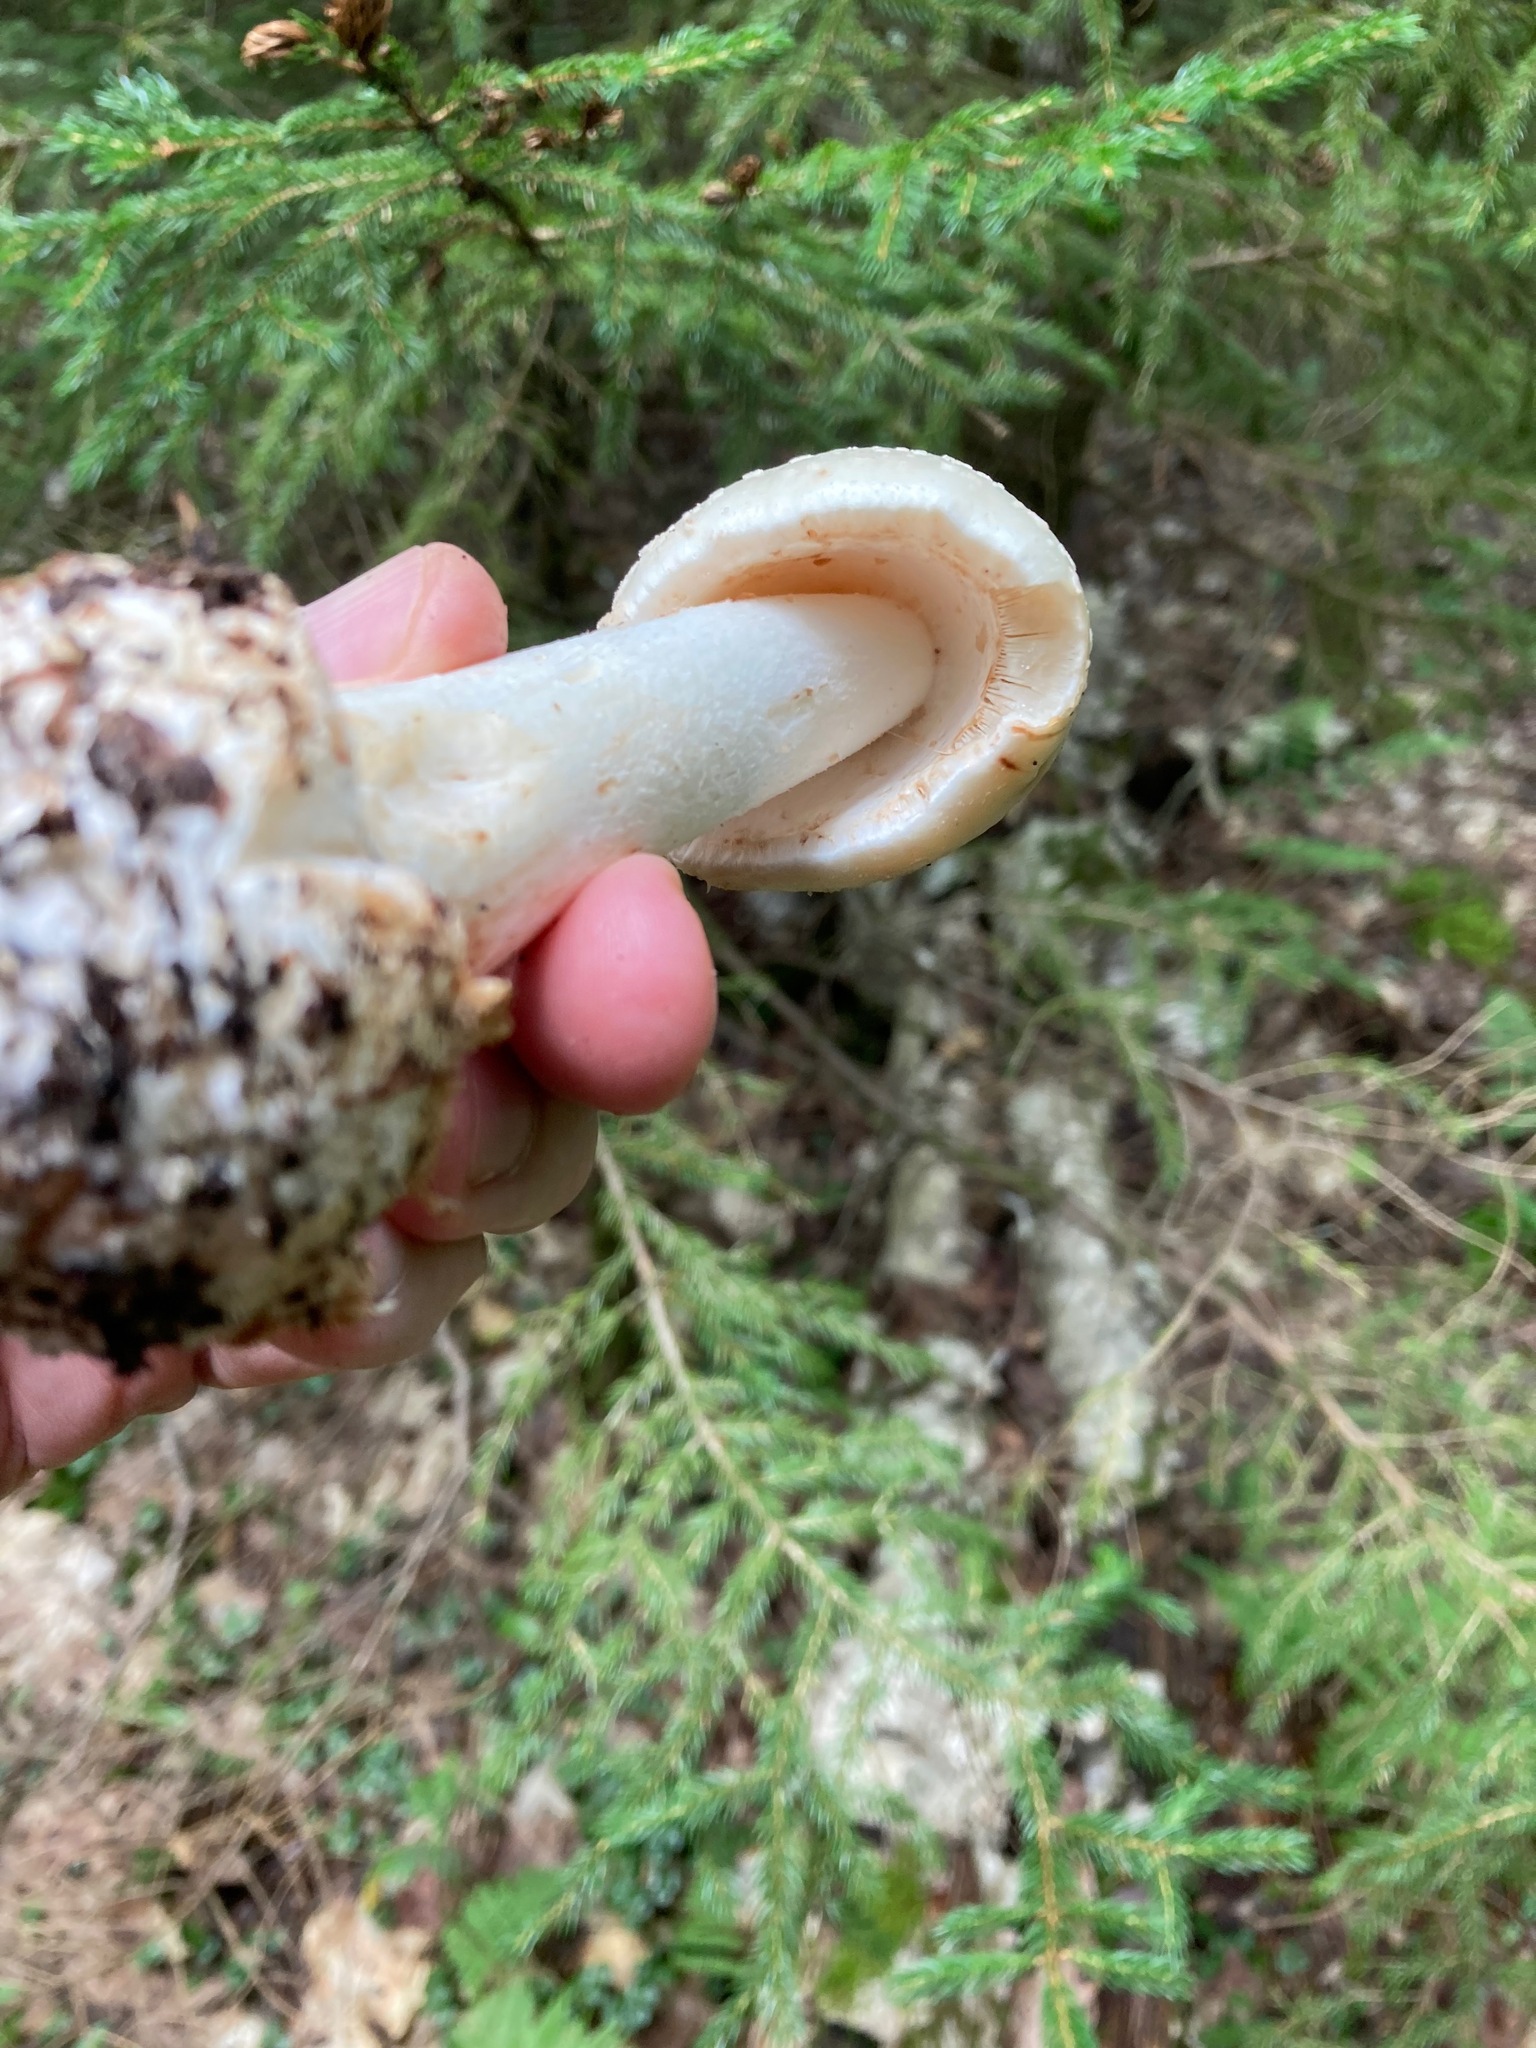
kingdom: Fungi
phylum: Basidiomycota
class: Agaricomycetes
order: Agaricales
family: Amanitaceae
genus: Amanita
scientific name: Amanita brunnescens
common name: Brown american star-footed amanita
